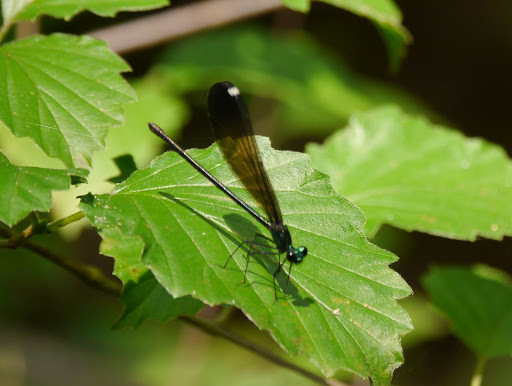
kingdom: Animalia
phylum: Arthropoda
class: Insecta
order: Odonata
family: Calopterygidae
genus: Calopteryx
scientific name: Calopteryx maculata
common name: Ebony jewelwing
